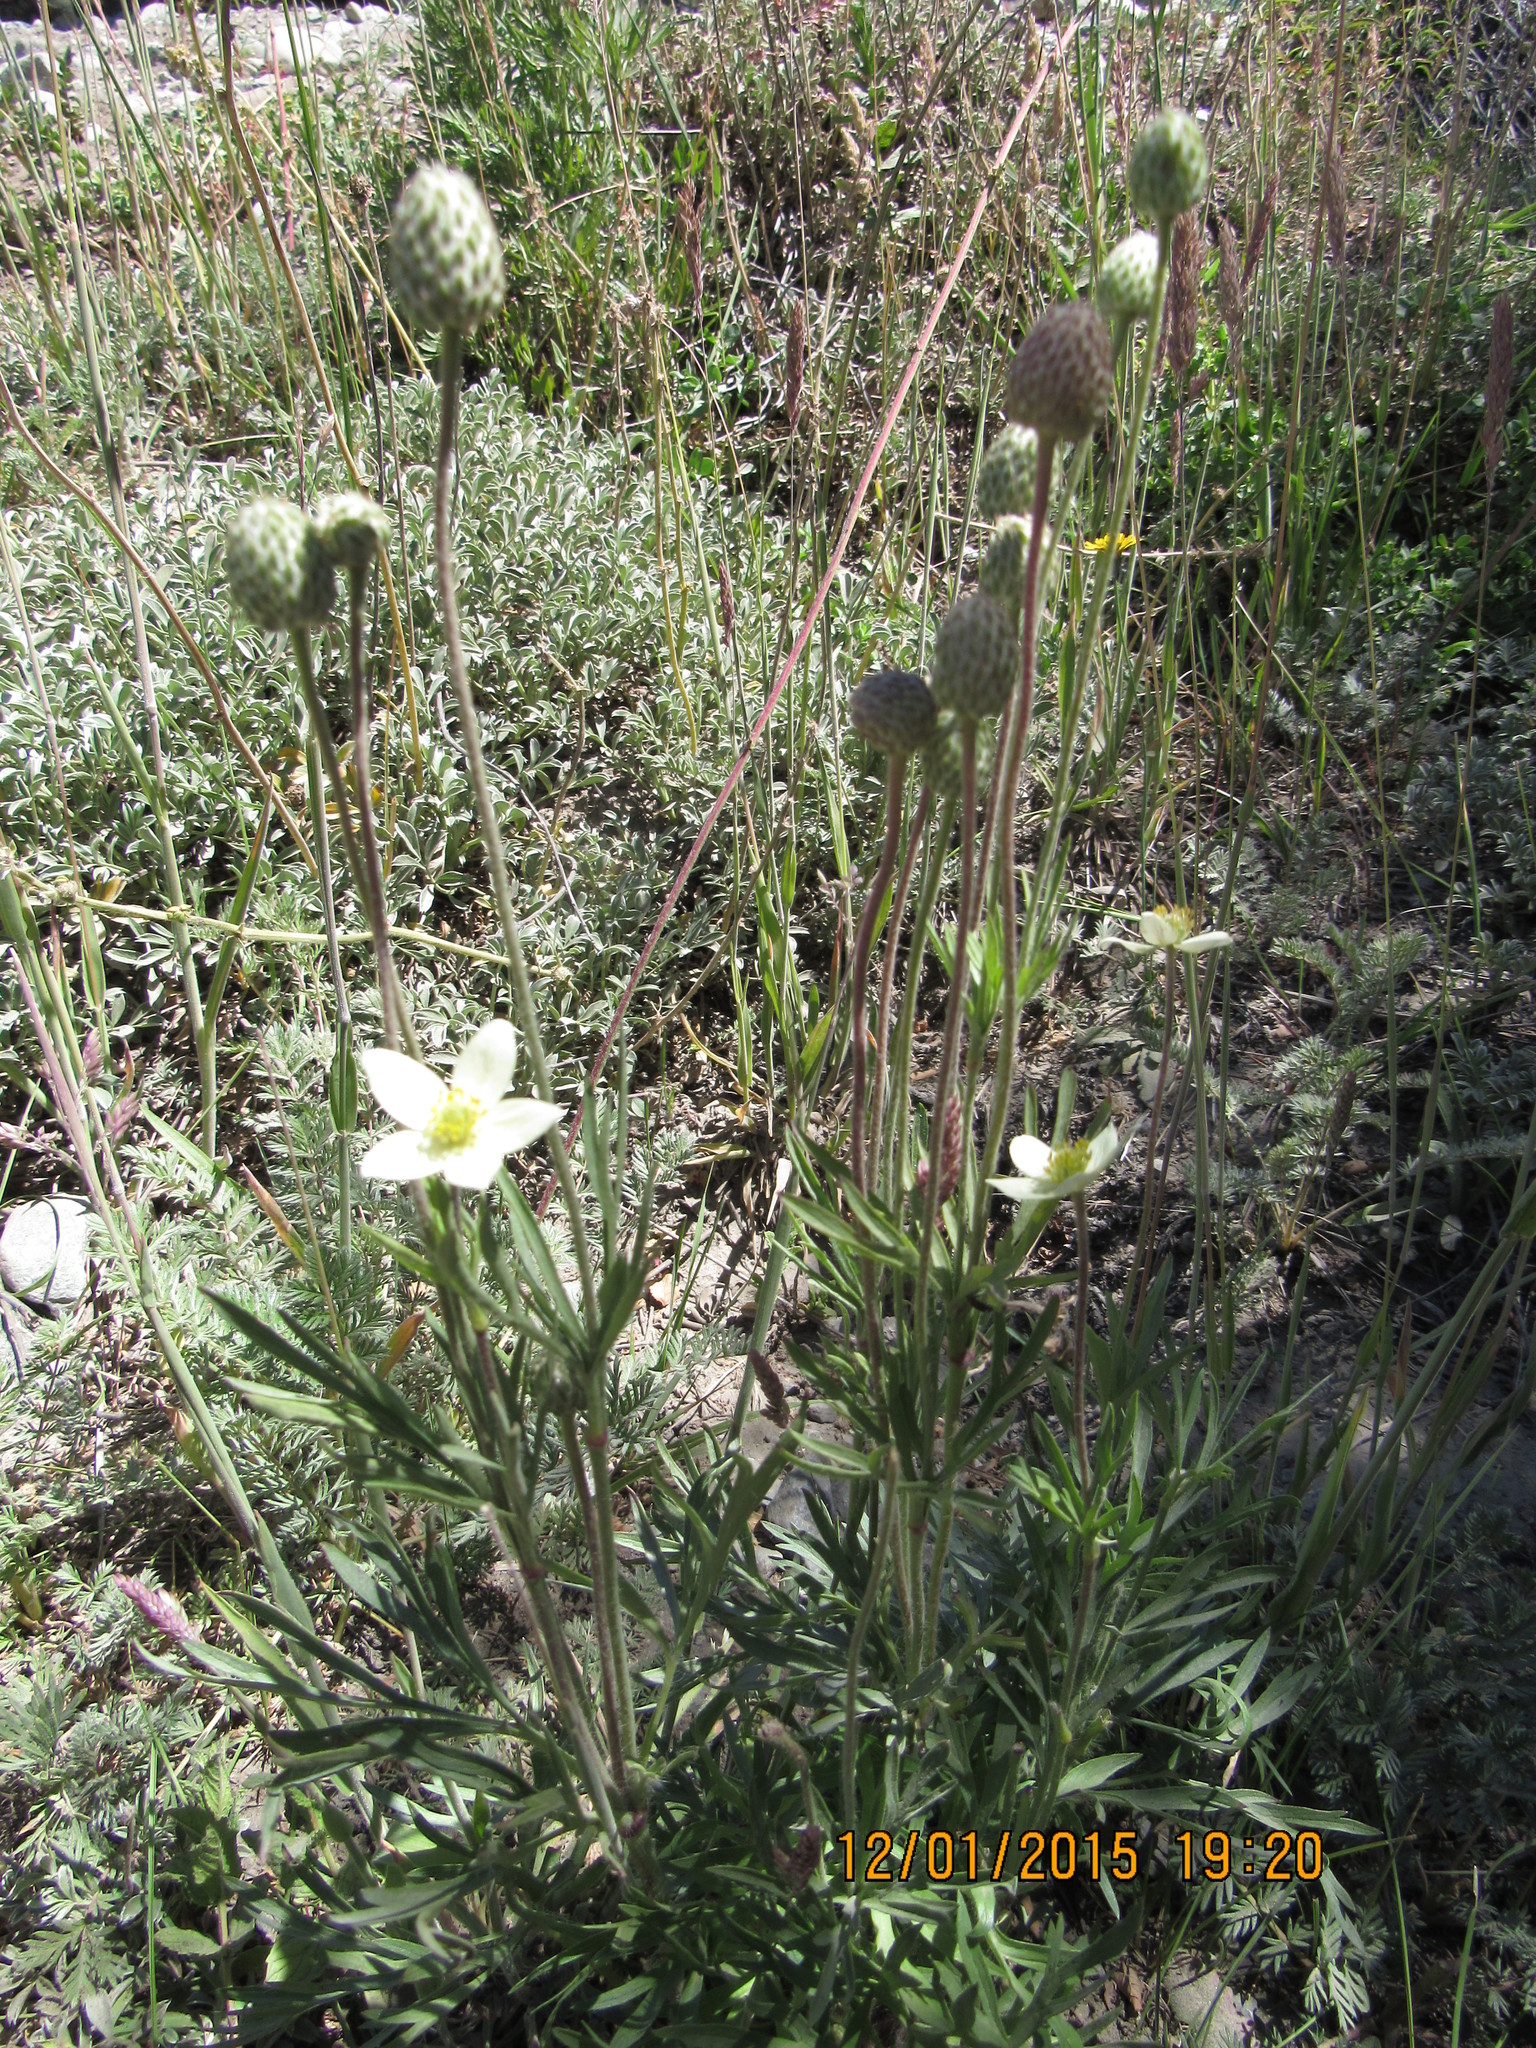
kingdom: Plantae
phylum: Tracheophyta
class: Magnoliopsida
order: Ranunculales
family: Ranunculaceae
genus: Anemone
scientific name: Anemone multifida
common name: Bird's-foot anemone
